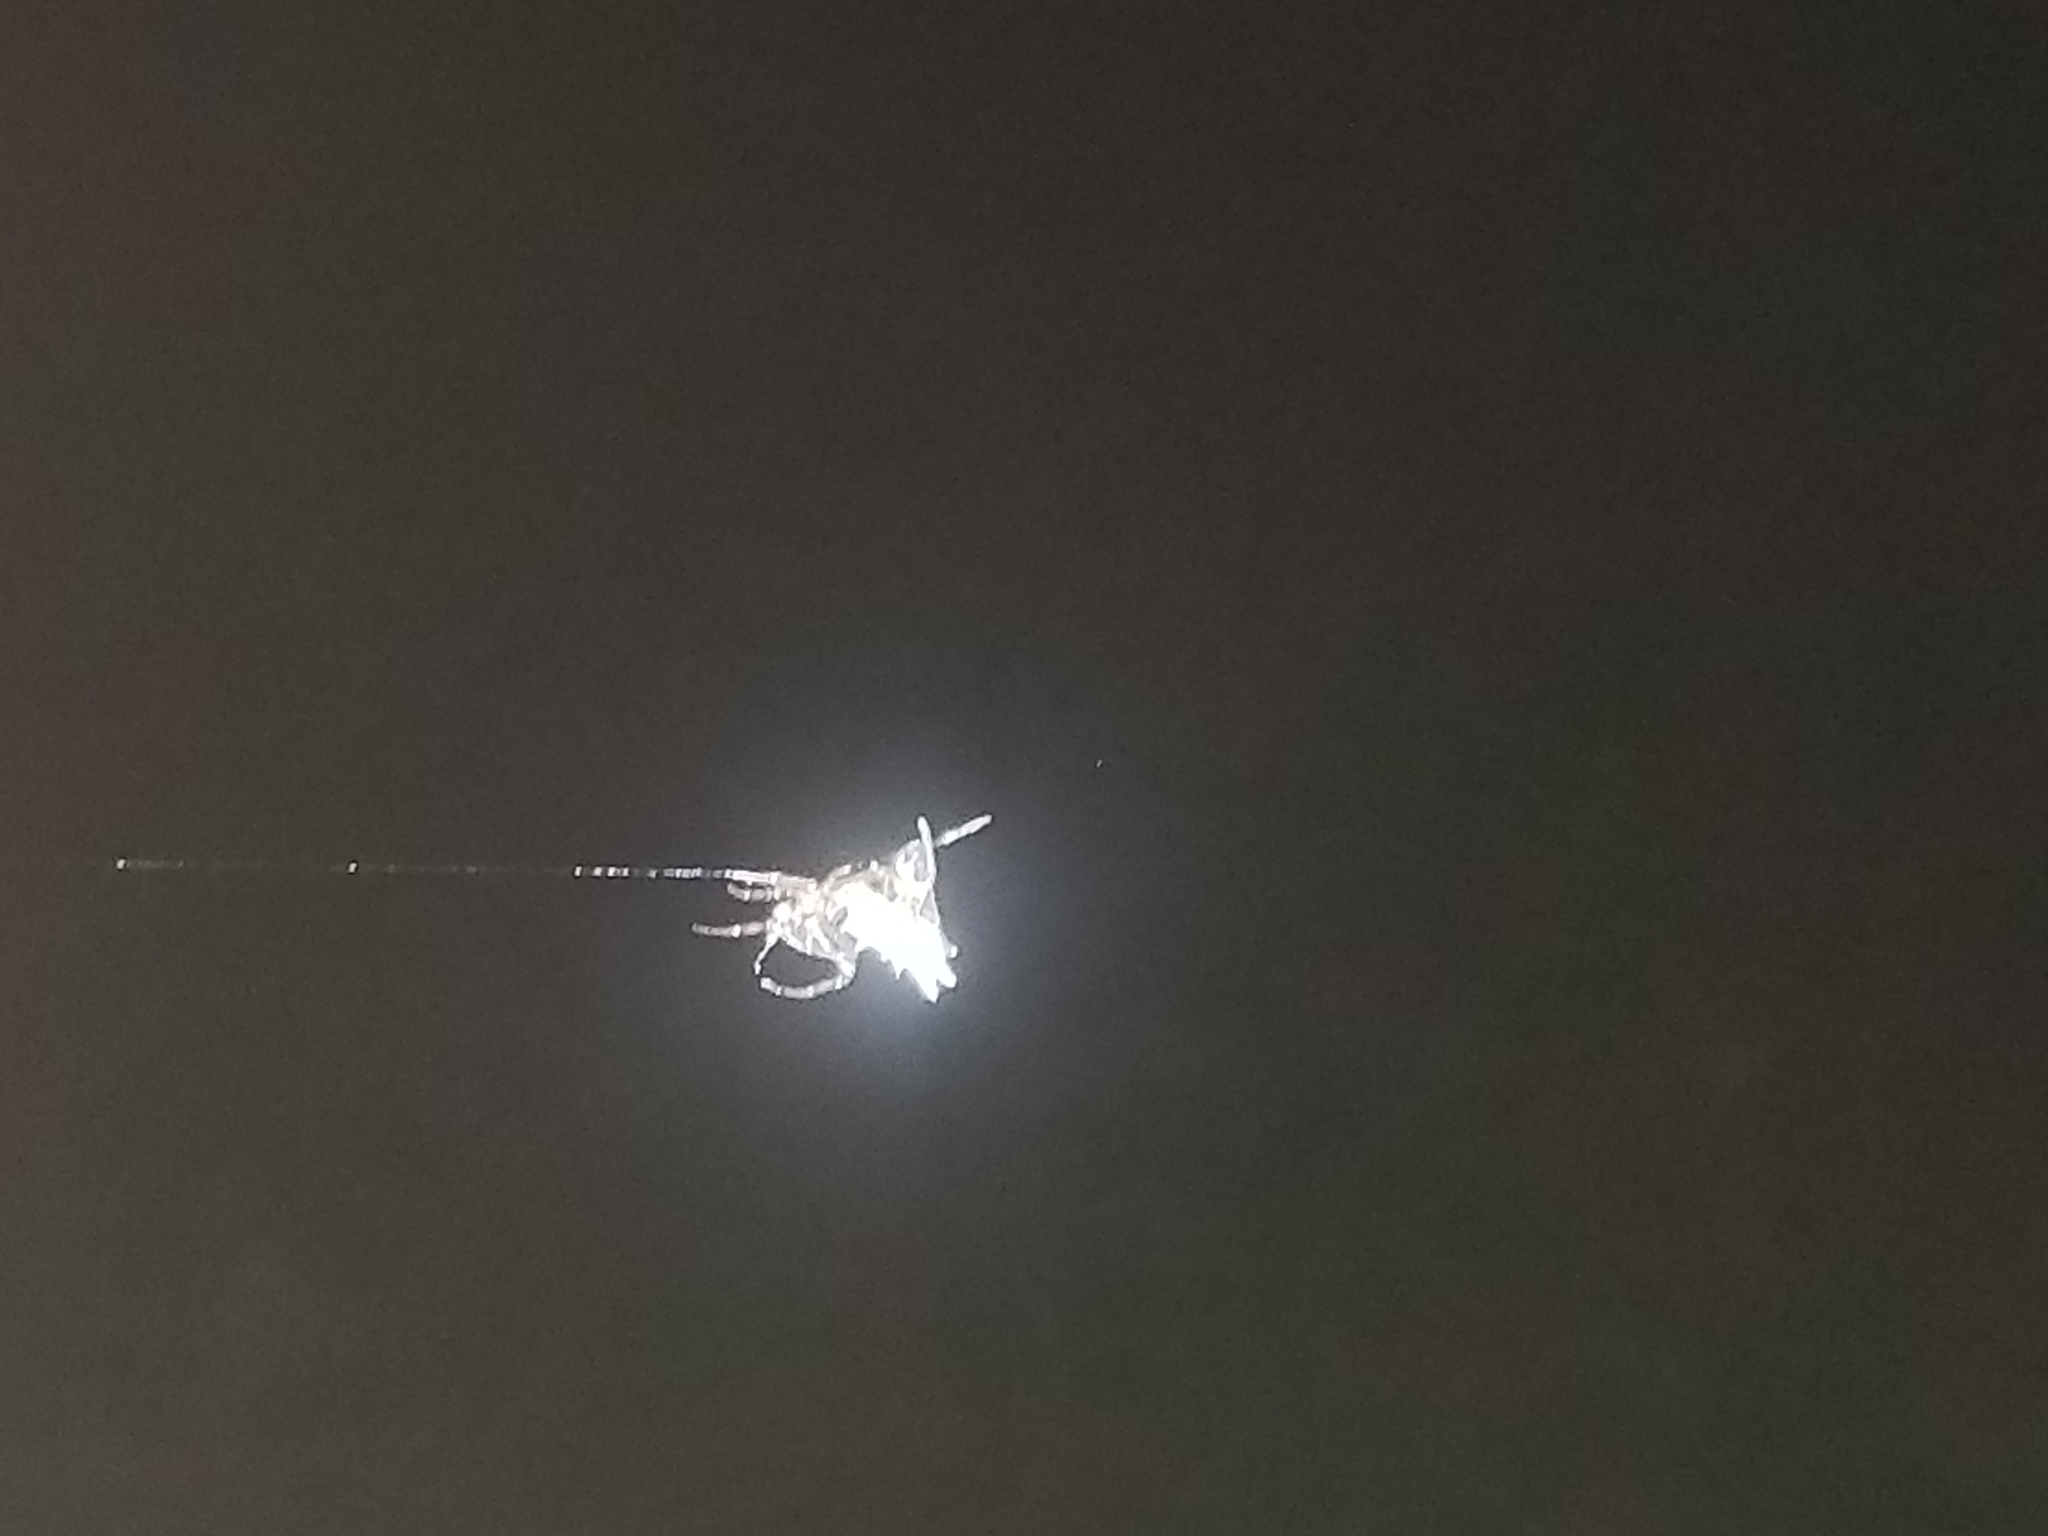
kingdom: Animalia
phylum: Arthropoda
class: Arachnida
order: Araneae
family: Araneidae
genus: Micrathena
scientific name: Micrathena gracilis
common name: Orb weavers
